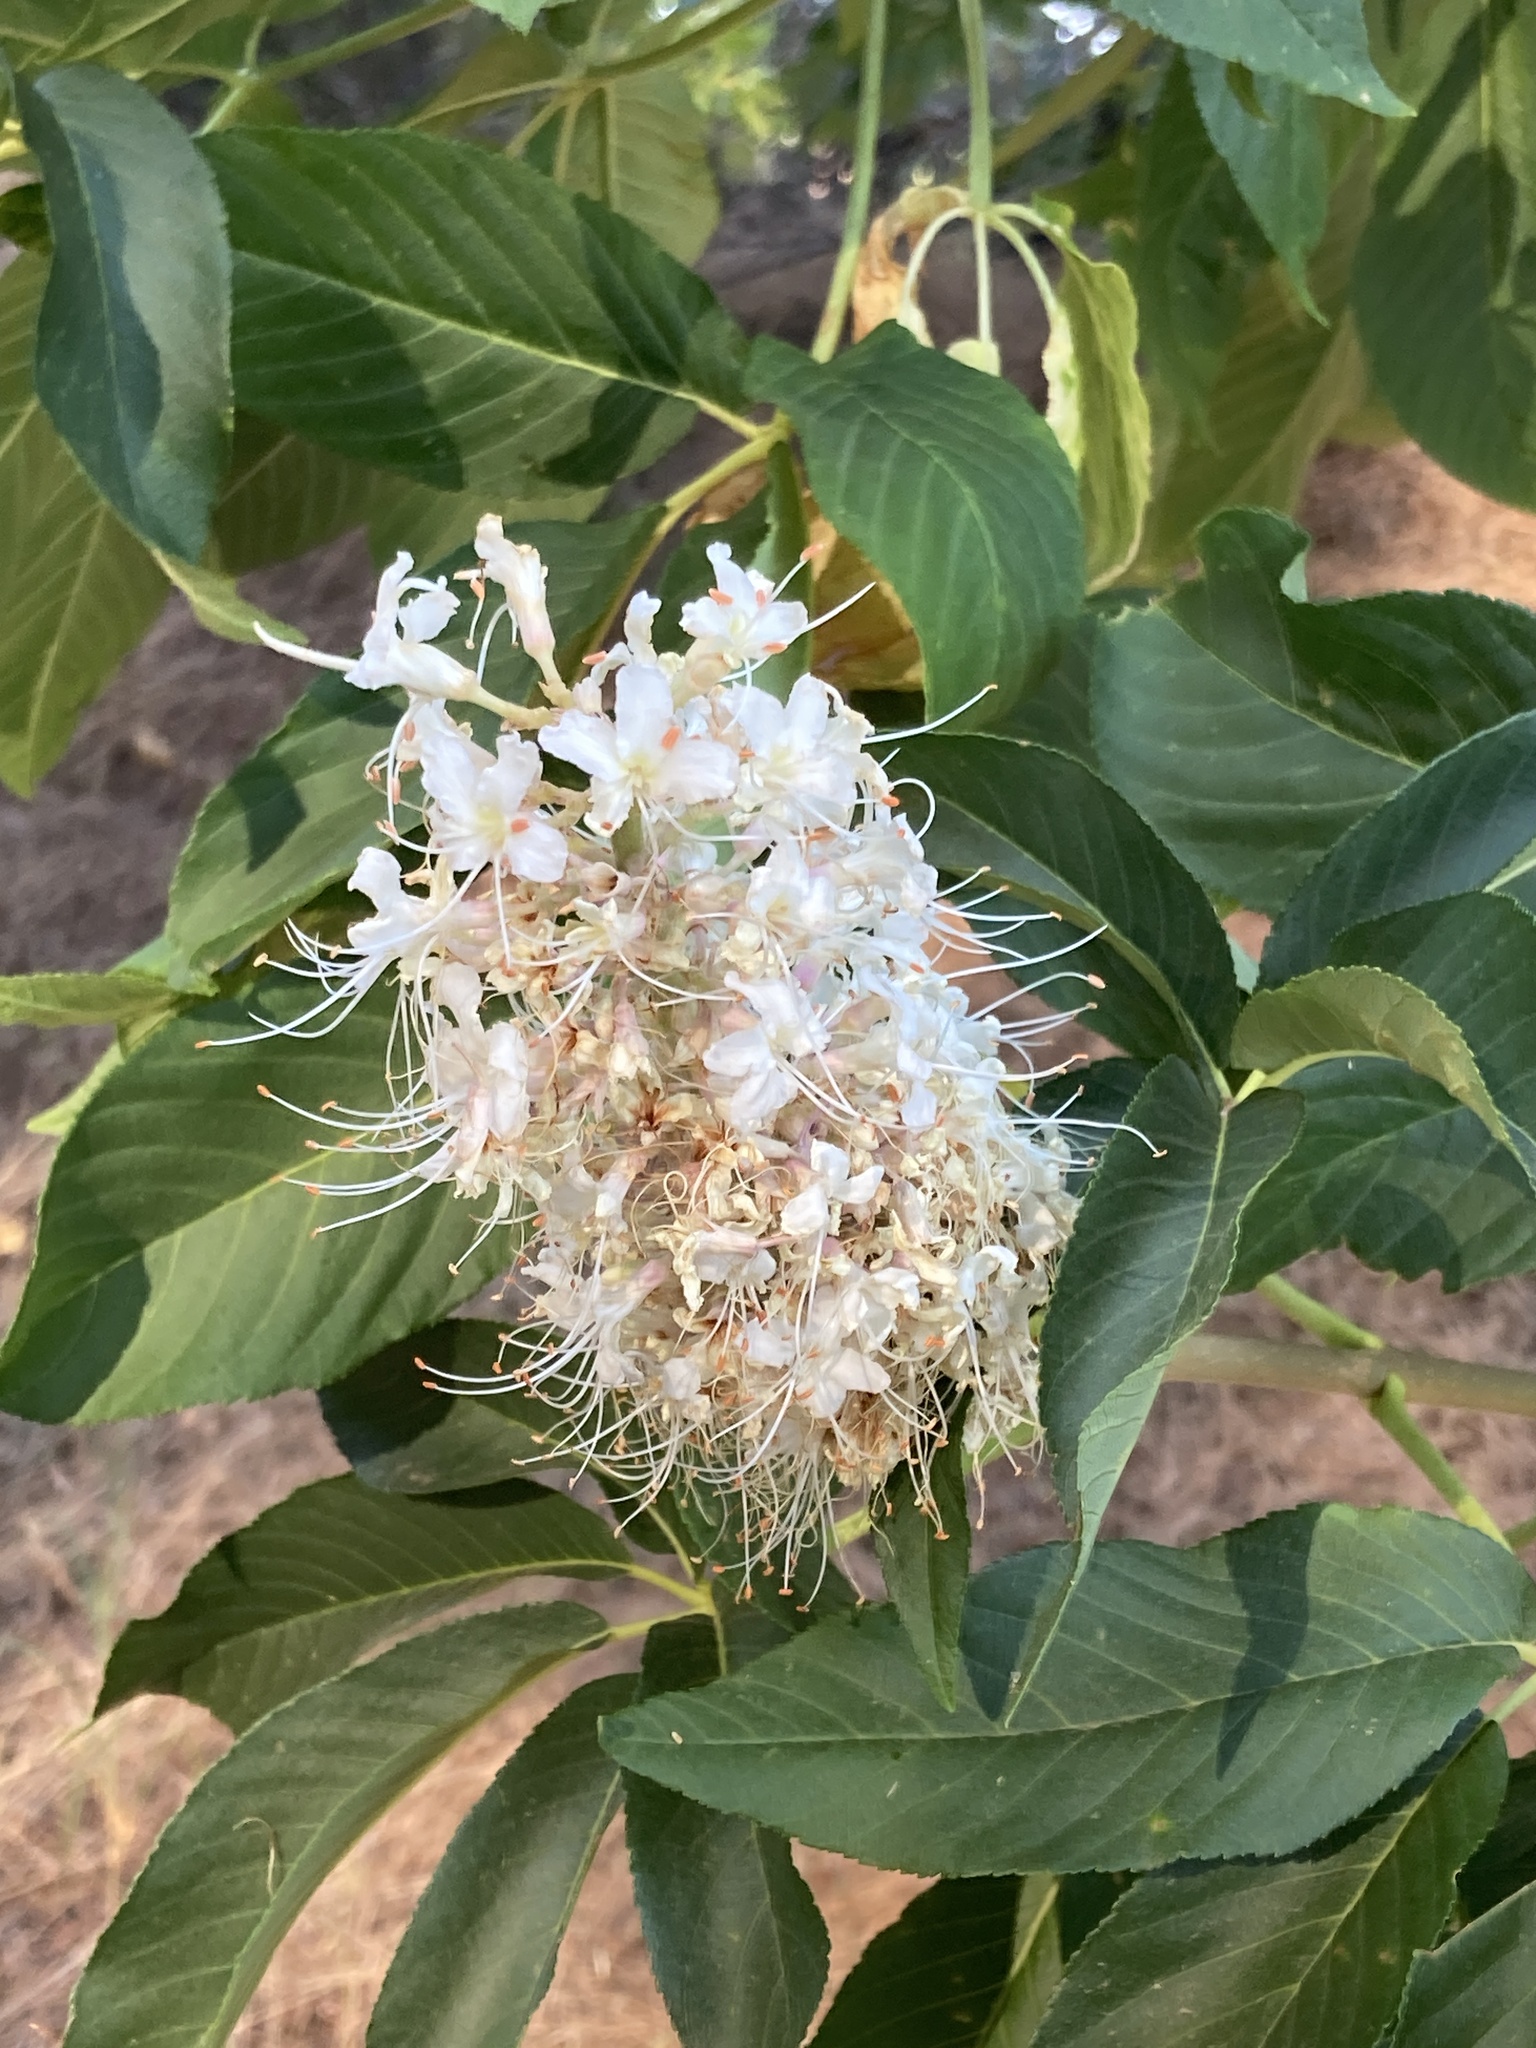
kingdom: Plantae
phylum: Tracheophyta
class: Magnoliopsida
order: Sapindales
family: Sapindaceae
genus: Aesculus
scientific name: Aesculus californica
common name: California buckeye
